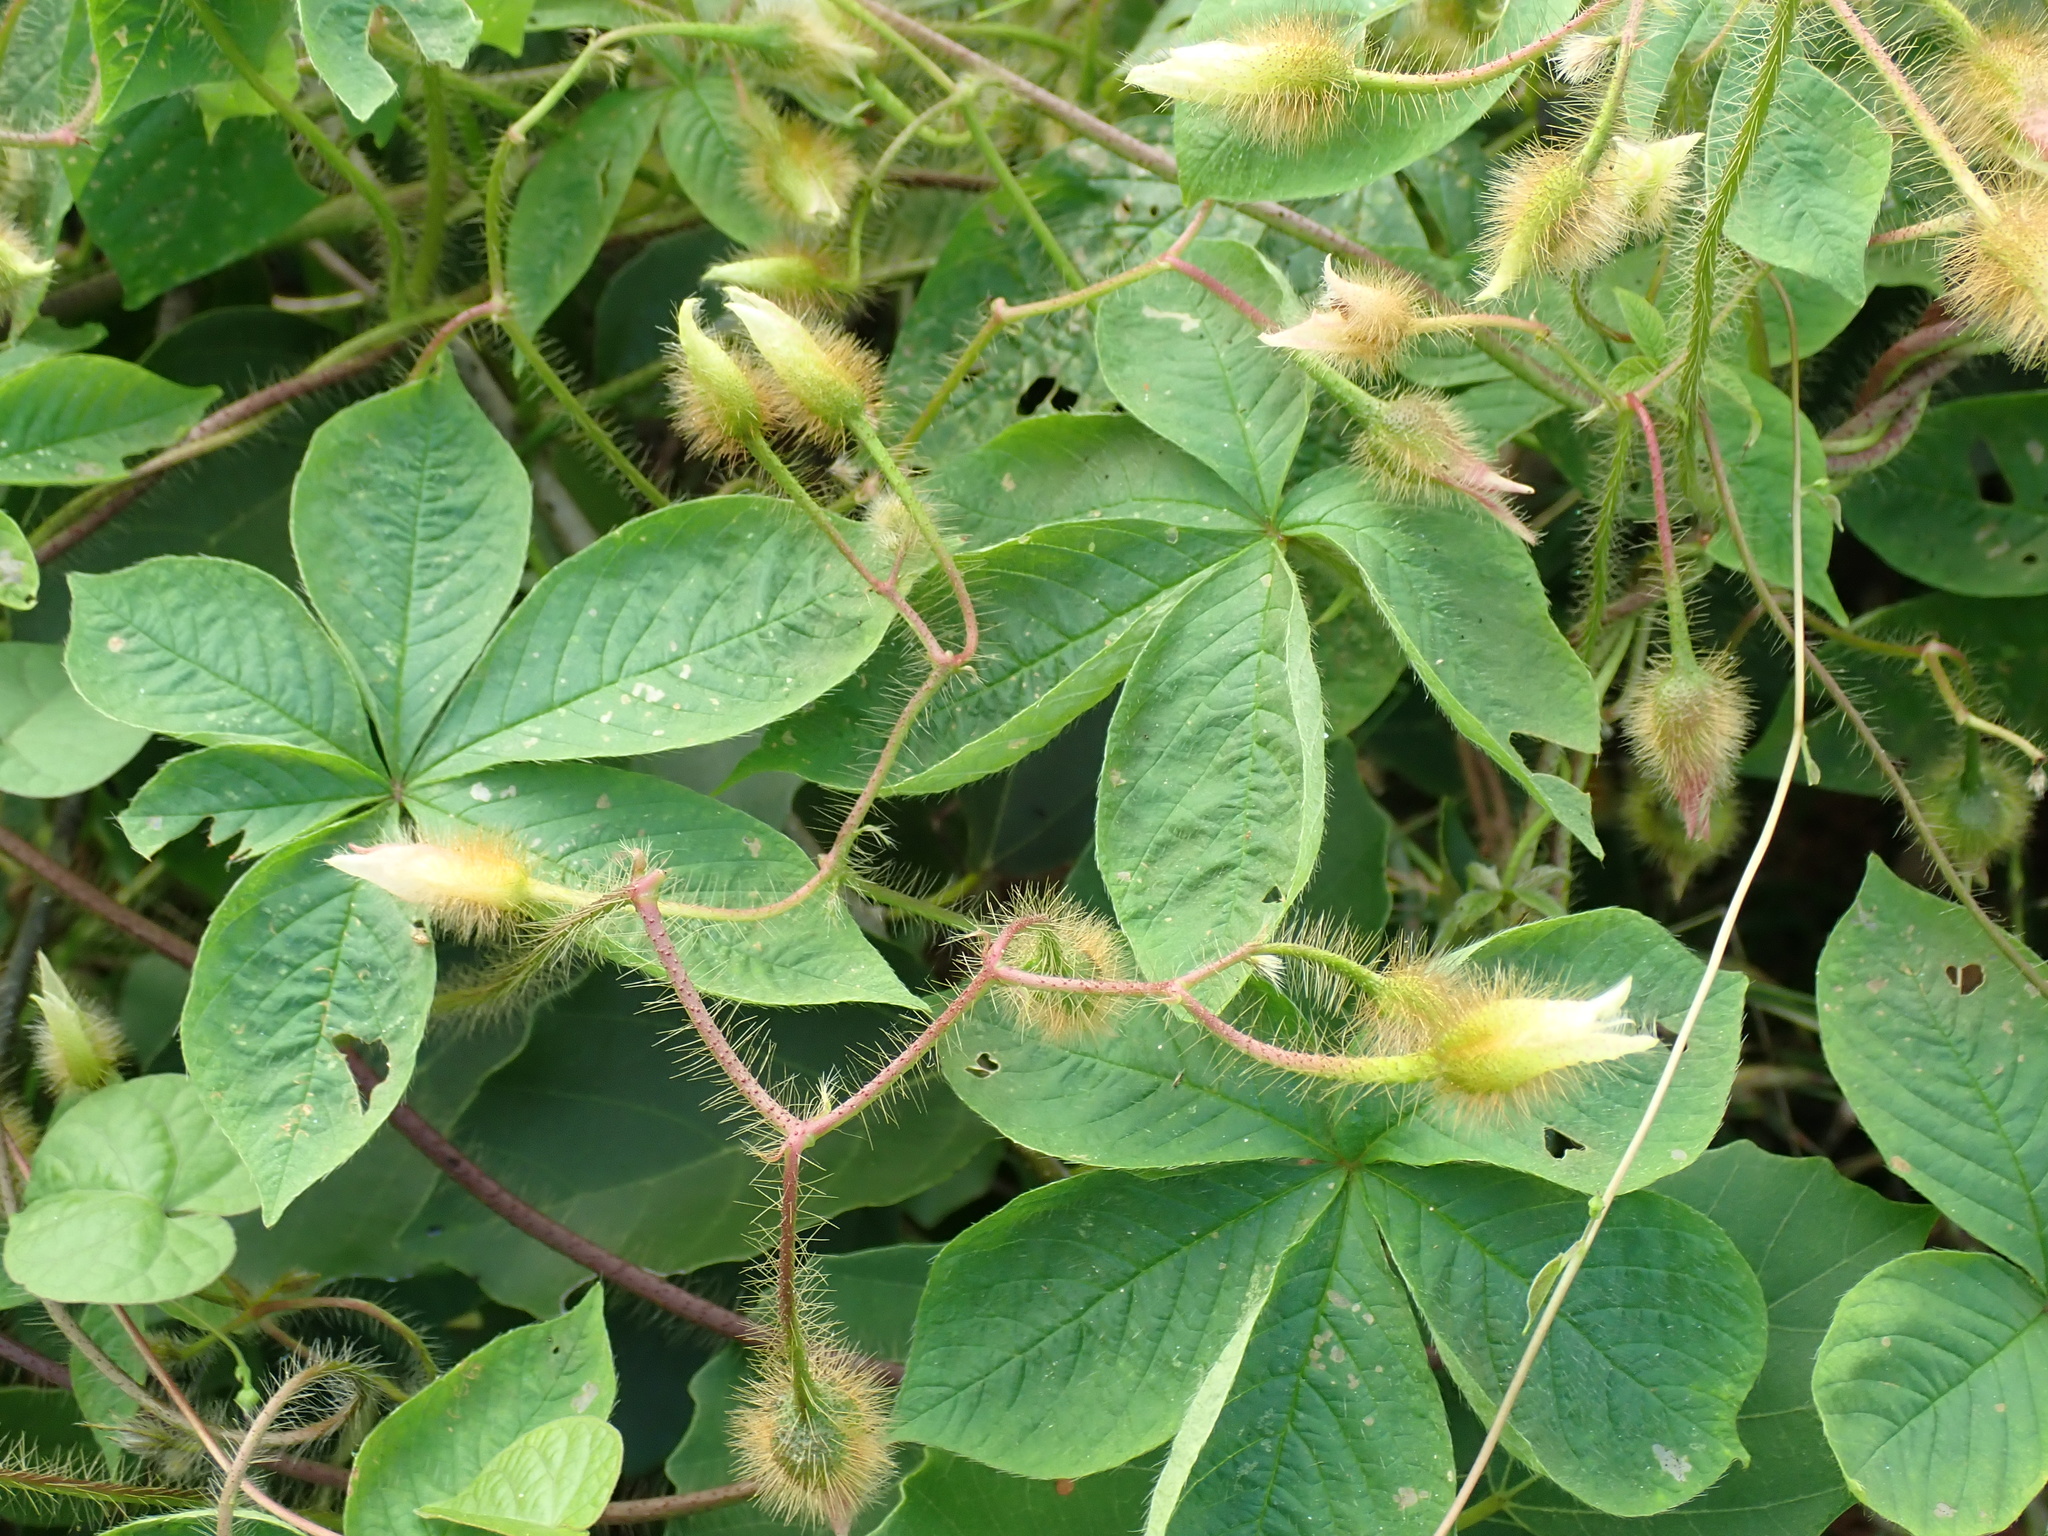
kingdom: Plantae
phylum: Tracheophyta
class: Magnoliopsida
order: Solanales
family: Convolvulaceae
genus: Distimake
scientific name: Distimake aegyptius
